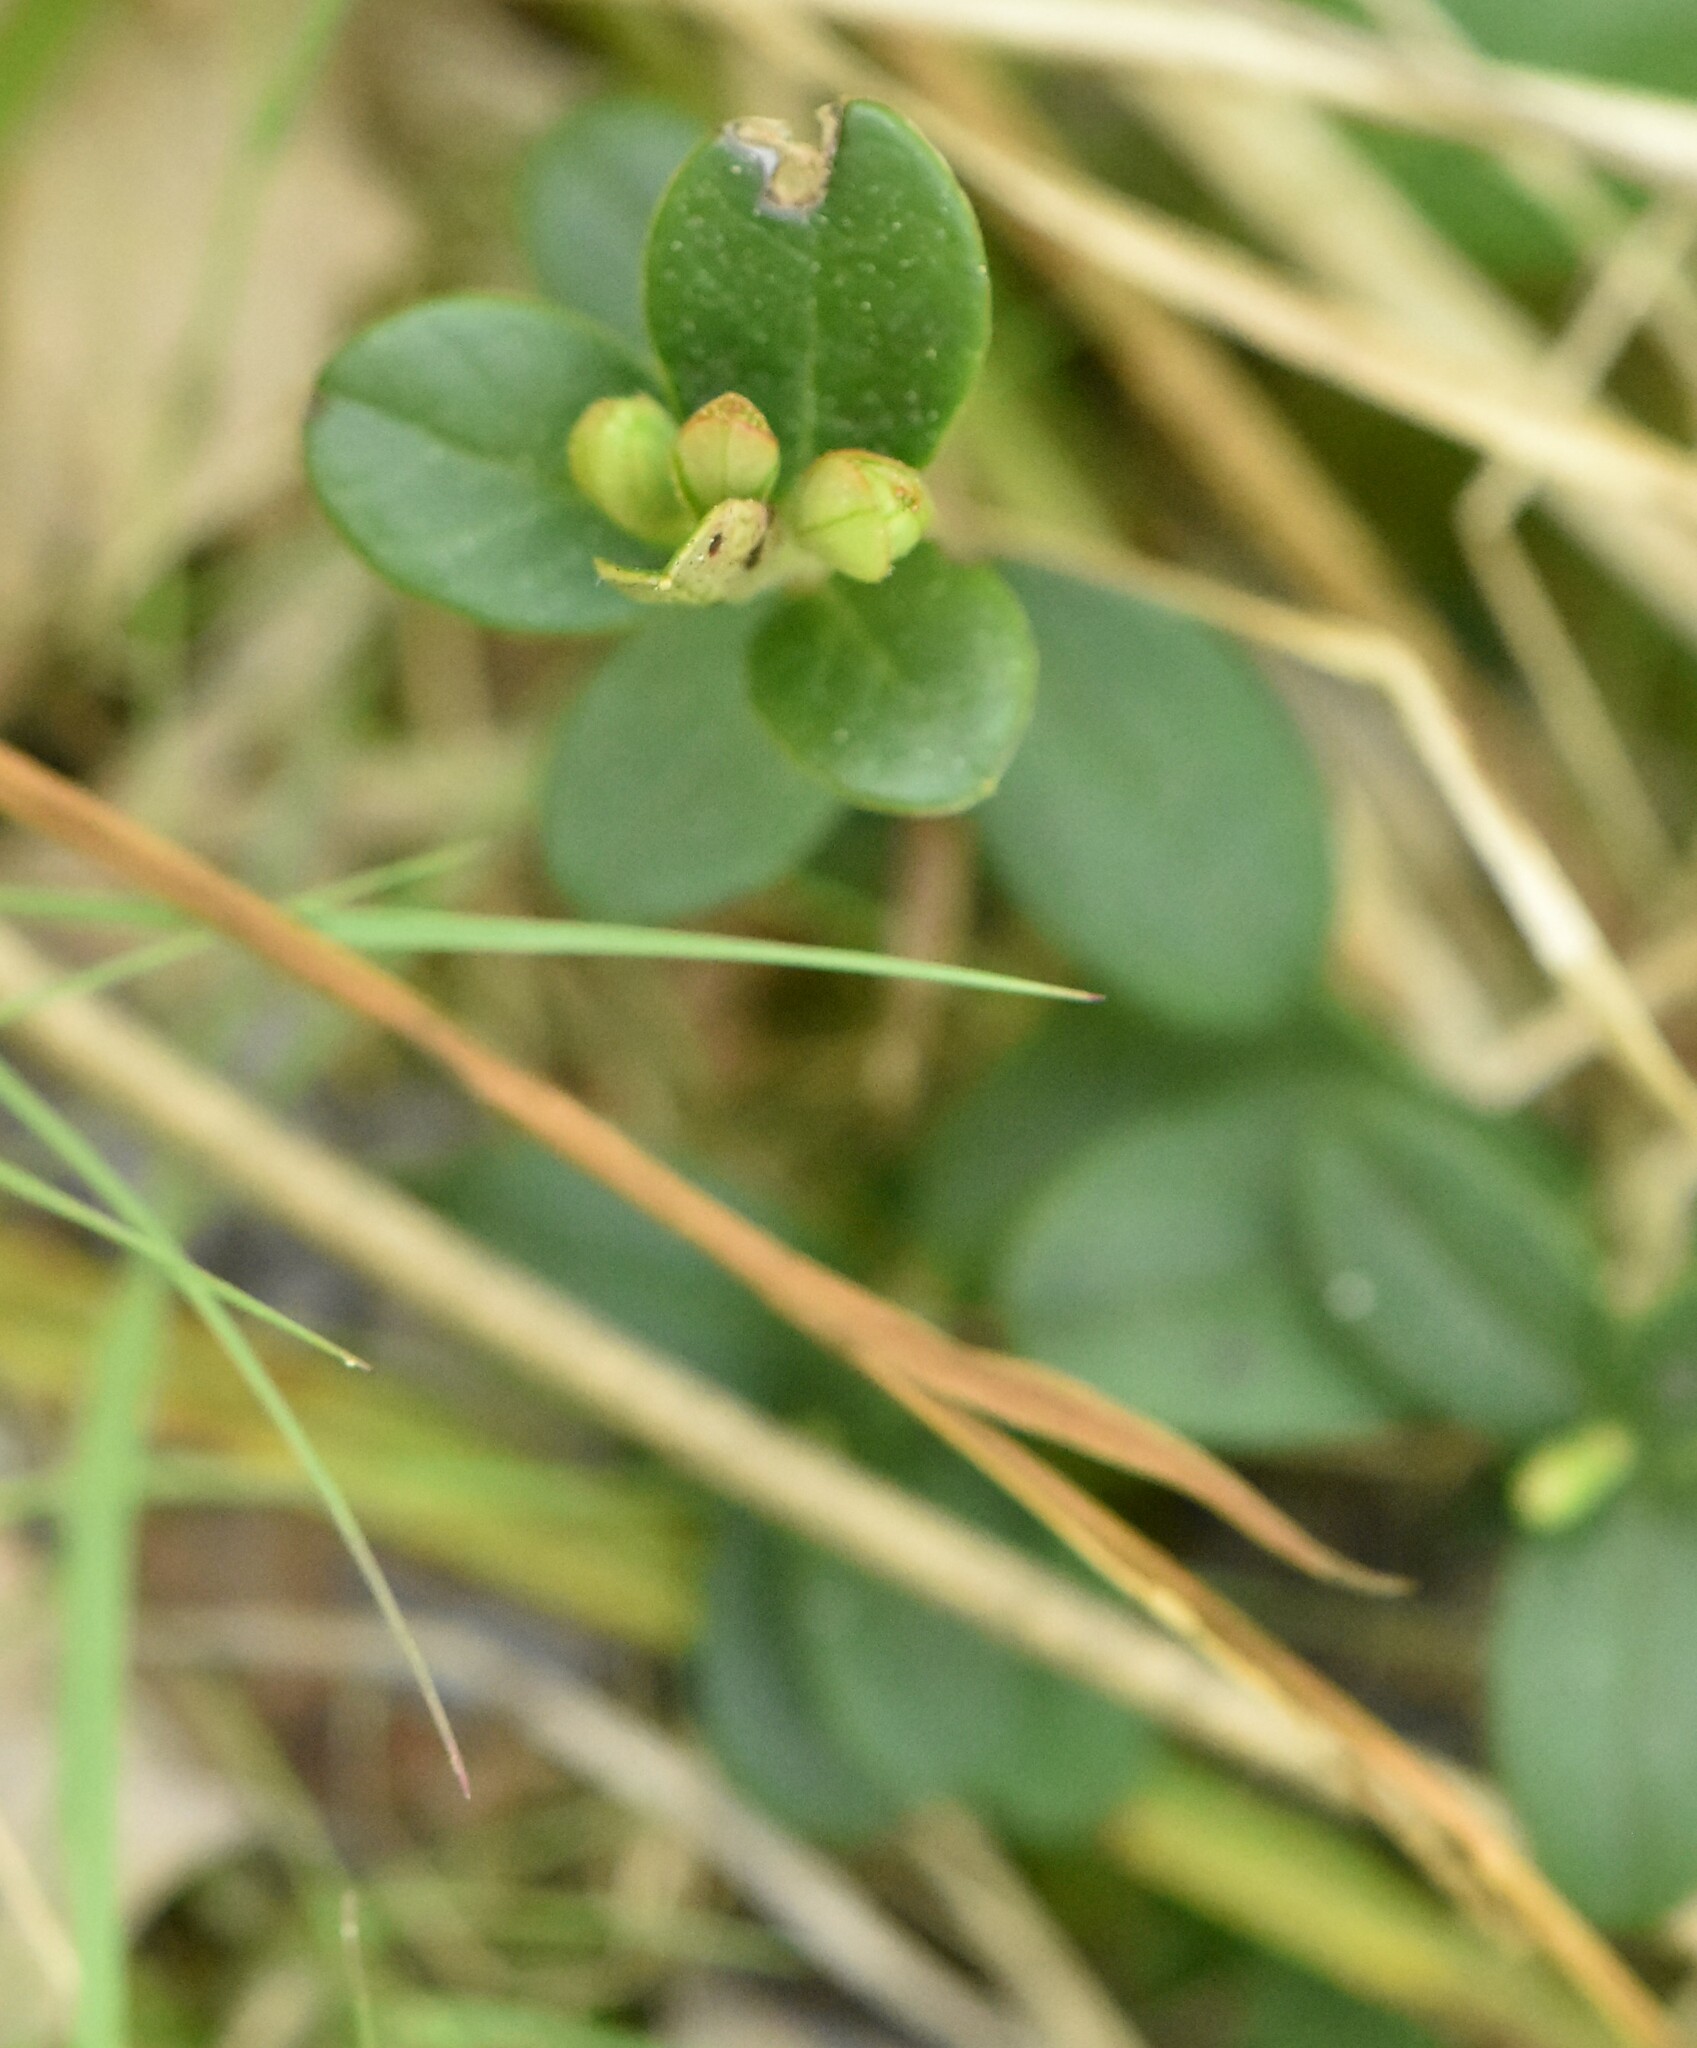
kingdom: Plantae
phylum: Tracheophyta
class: Magnoliopsida
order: Ericales
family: Ericaceae
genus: Vaccinium
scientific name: Vaccinium vitis-idaea
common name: Cowberry
